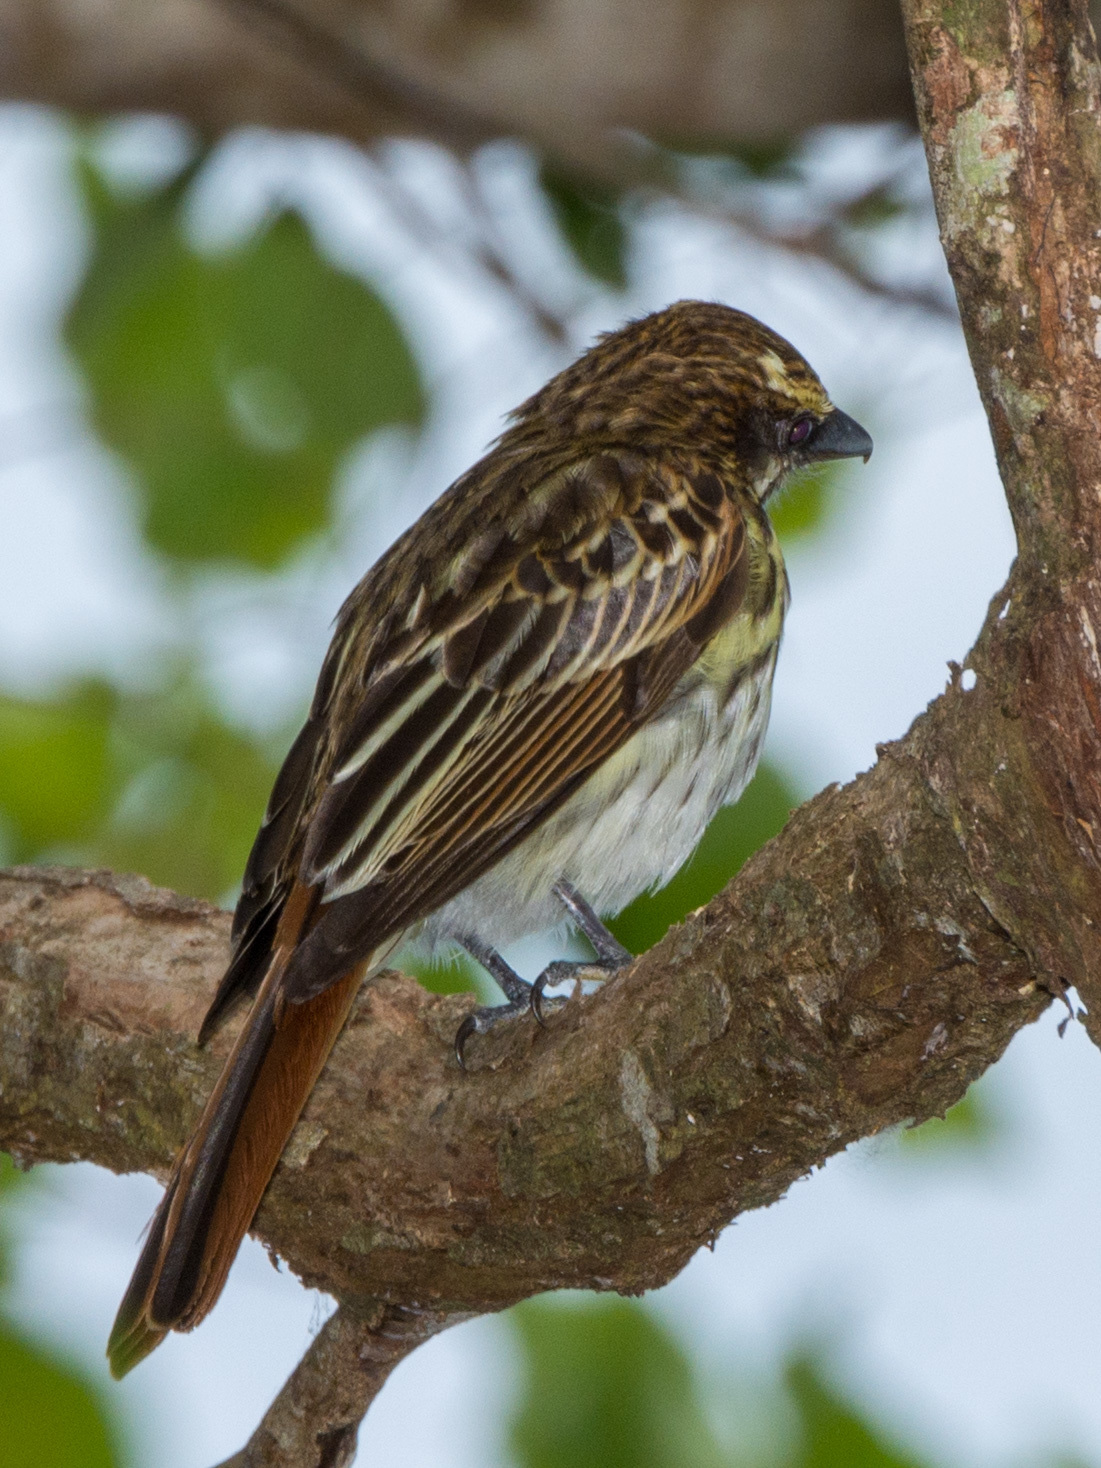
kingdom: Animalia
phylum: Chordata
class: Aves
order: Passeriformes
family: Tyrannidae
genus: Myiodynastes
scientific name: Myiodynastes maculatus
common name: Streaked flycatcher
